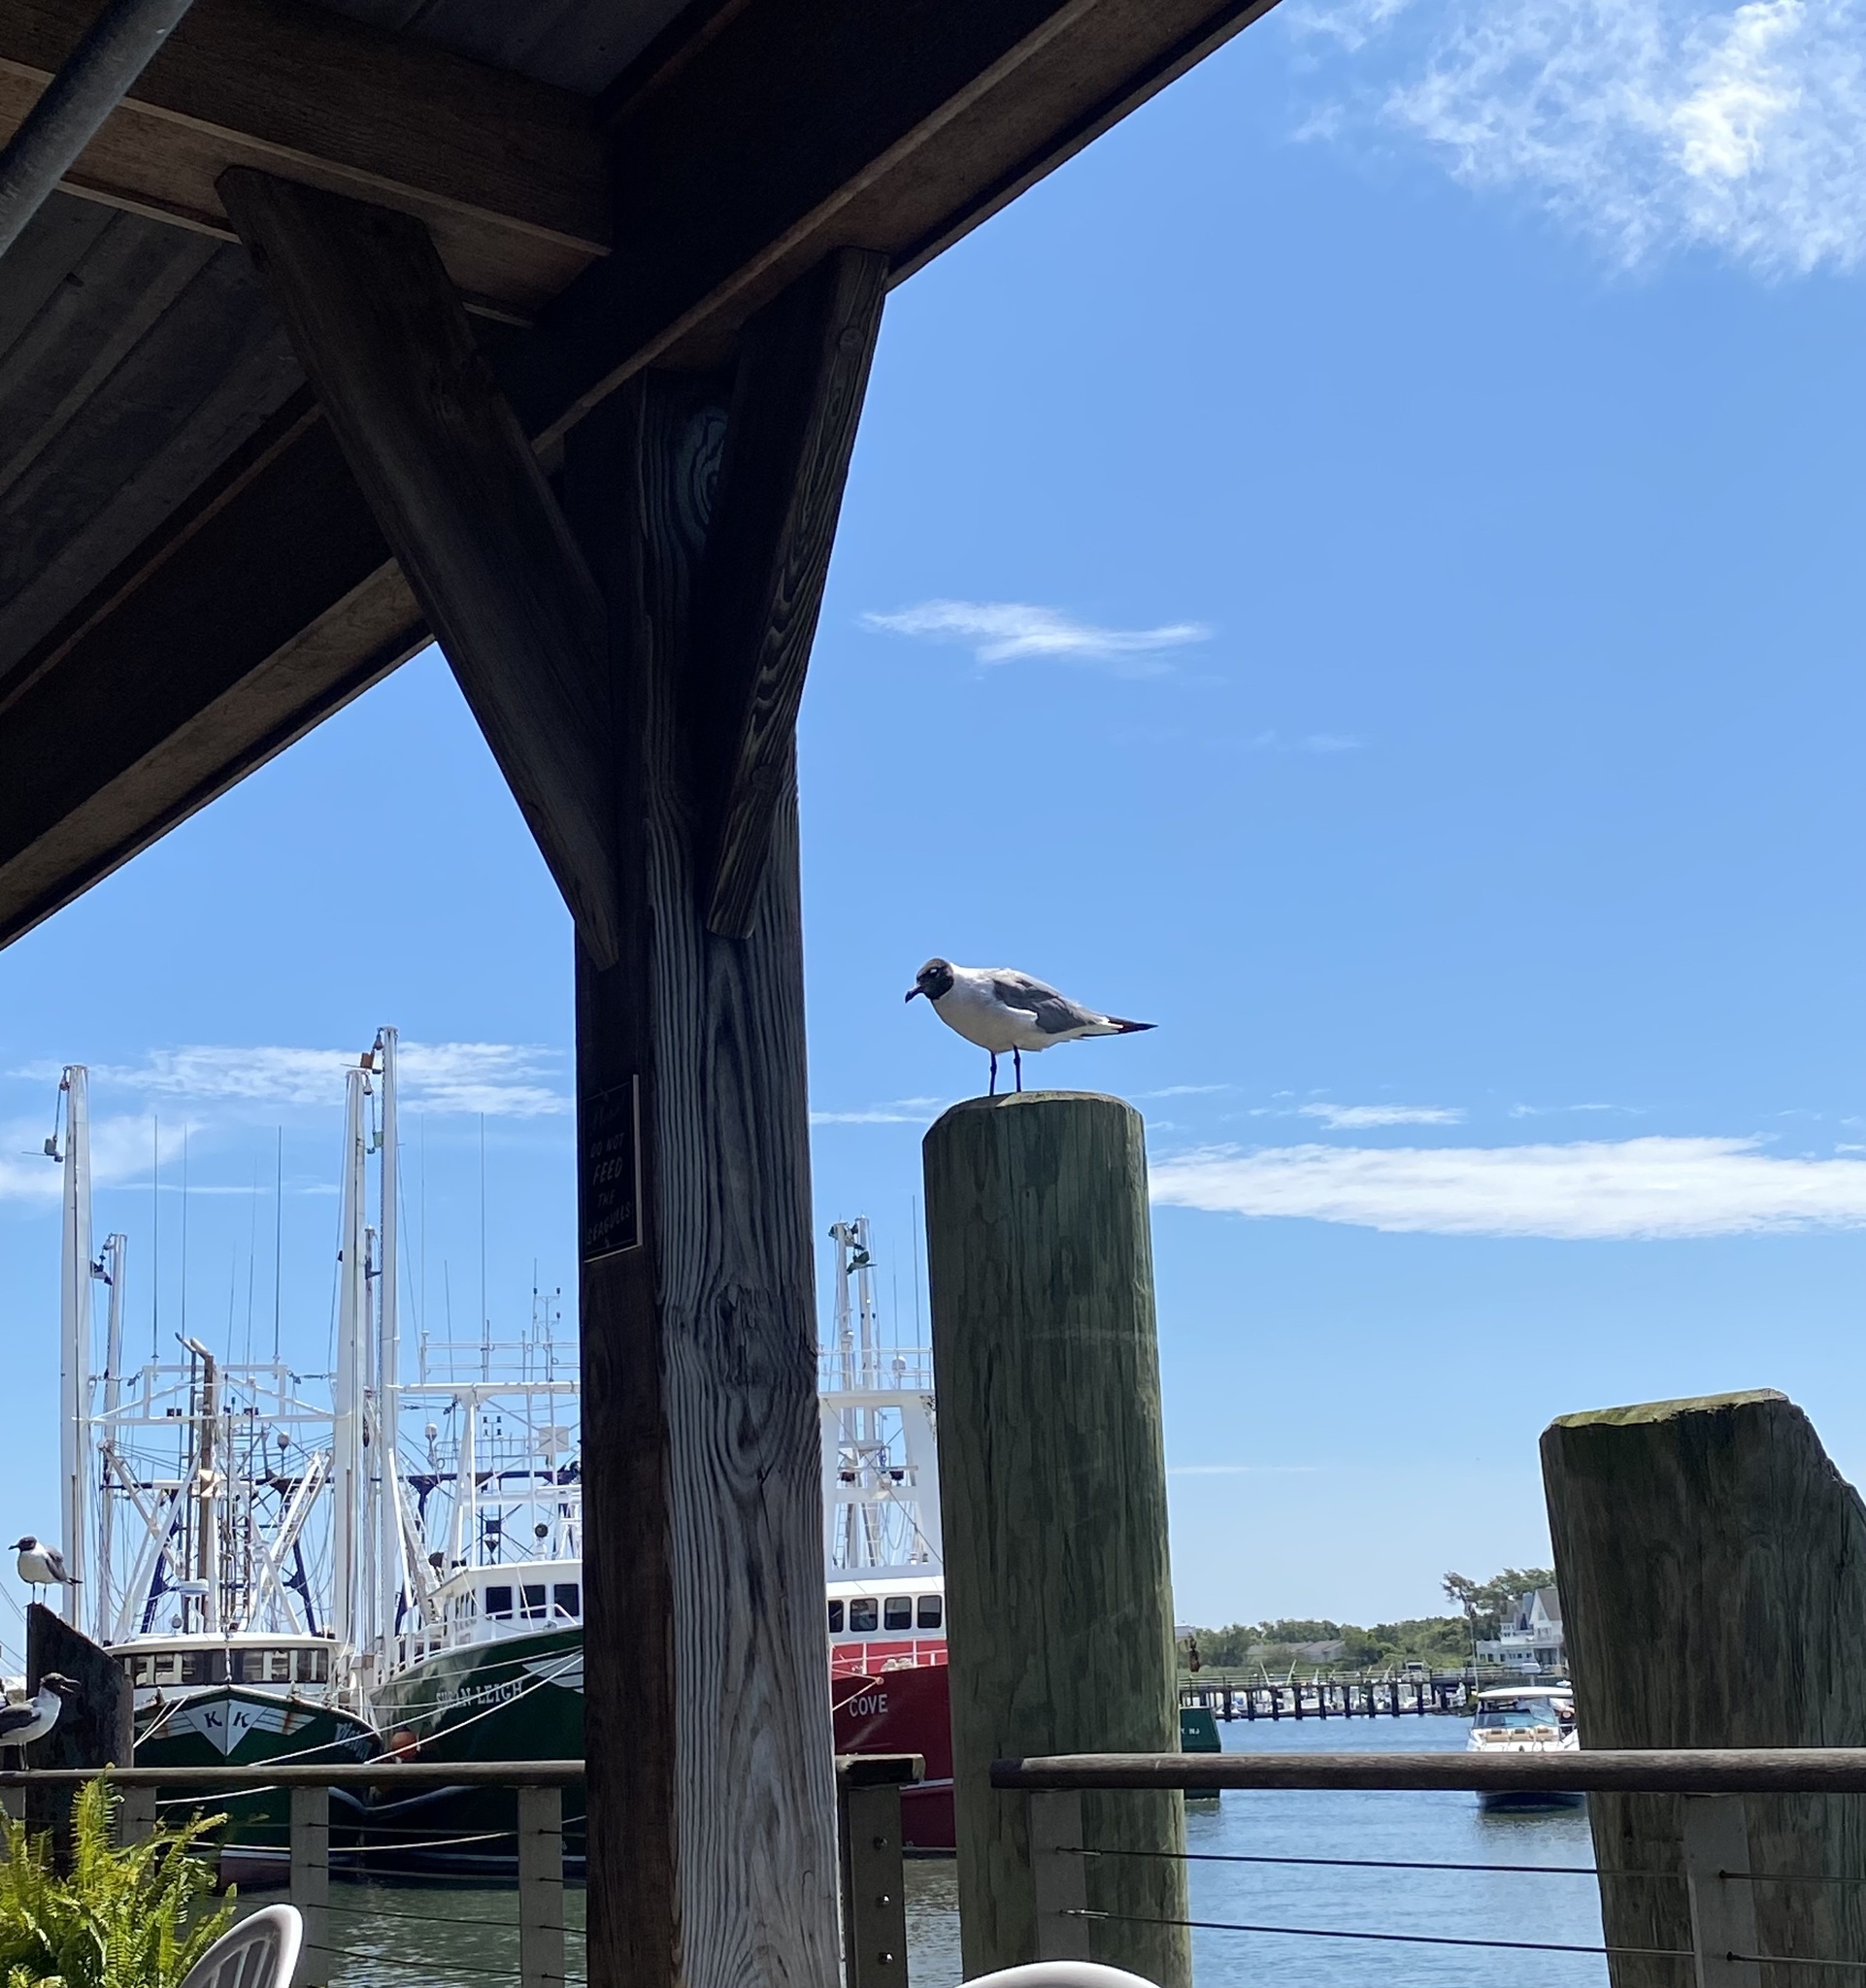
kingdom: Animalia
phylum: Chordata
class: Aves
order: Charadriiformes
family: Laridae
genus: Leucophaeus
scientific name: Leucophaeus atricilla
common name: Laughing gull
